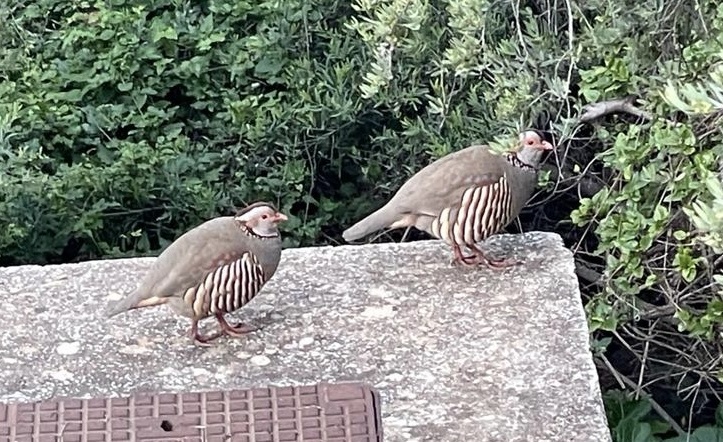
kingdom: Animalia
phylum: Chordata
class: Aves
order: Galliformes
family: Phasianidae
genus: Alectoris
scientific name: Alectoris barbara
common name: Barbary partridge
